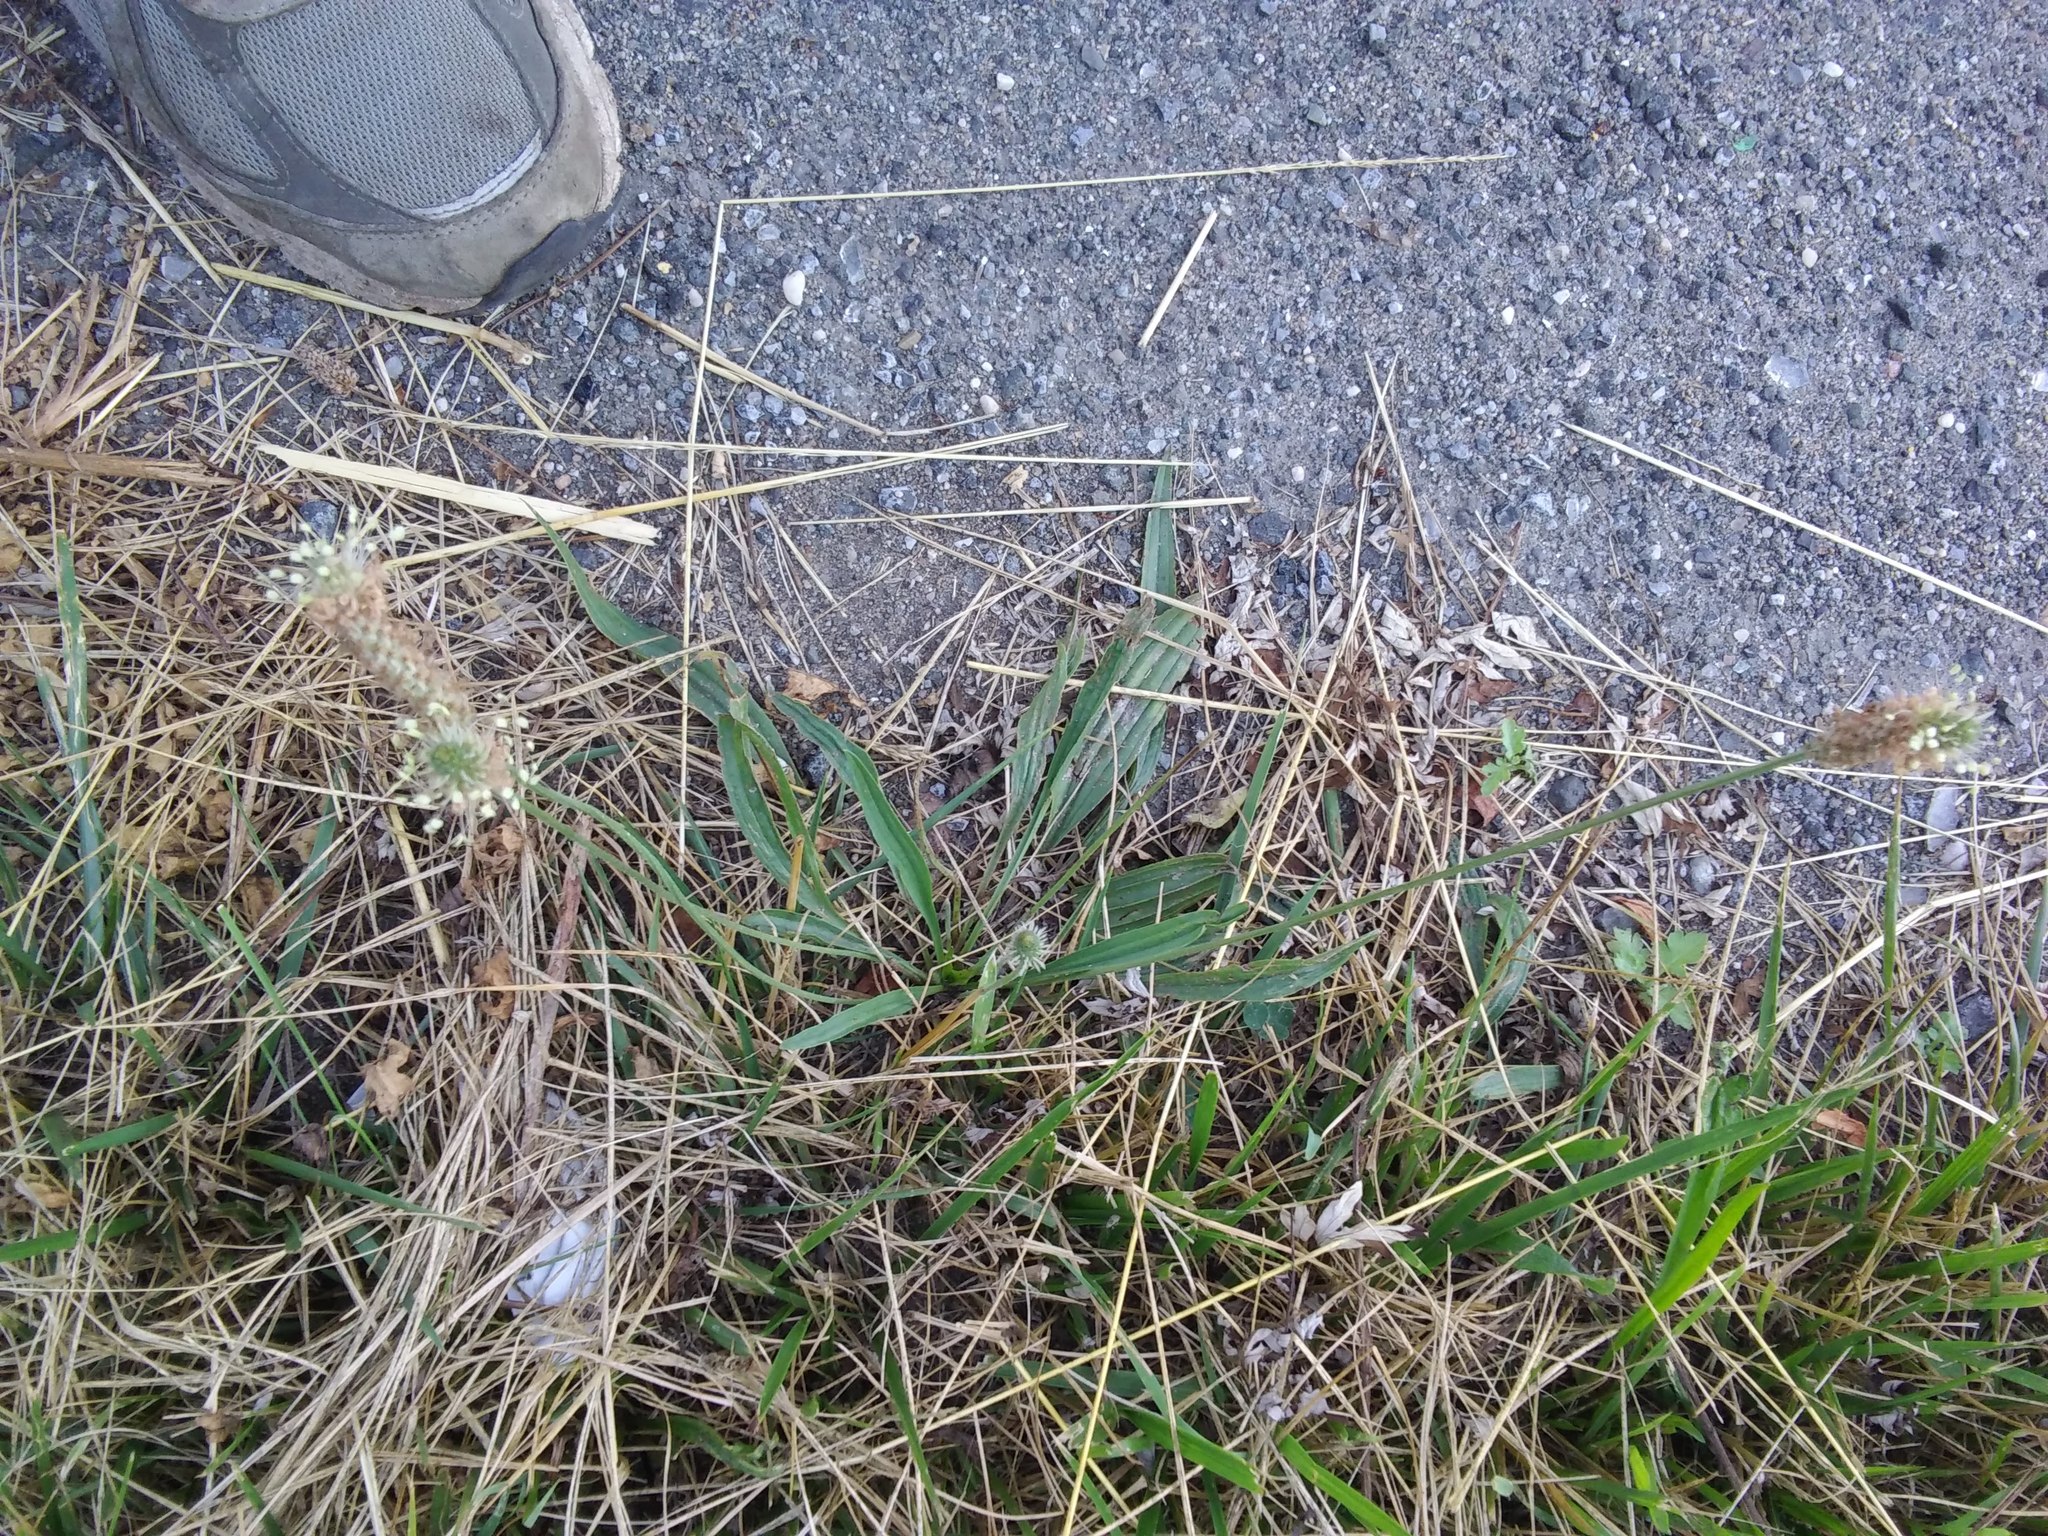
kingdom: Plantae
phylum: Tracheophyta
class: Magnoliopsida
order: Lamiales
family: Plantaginaceae
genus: Plantago
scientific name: Plantago lanceolata
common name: Ribwort plantain
